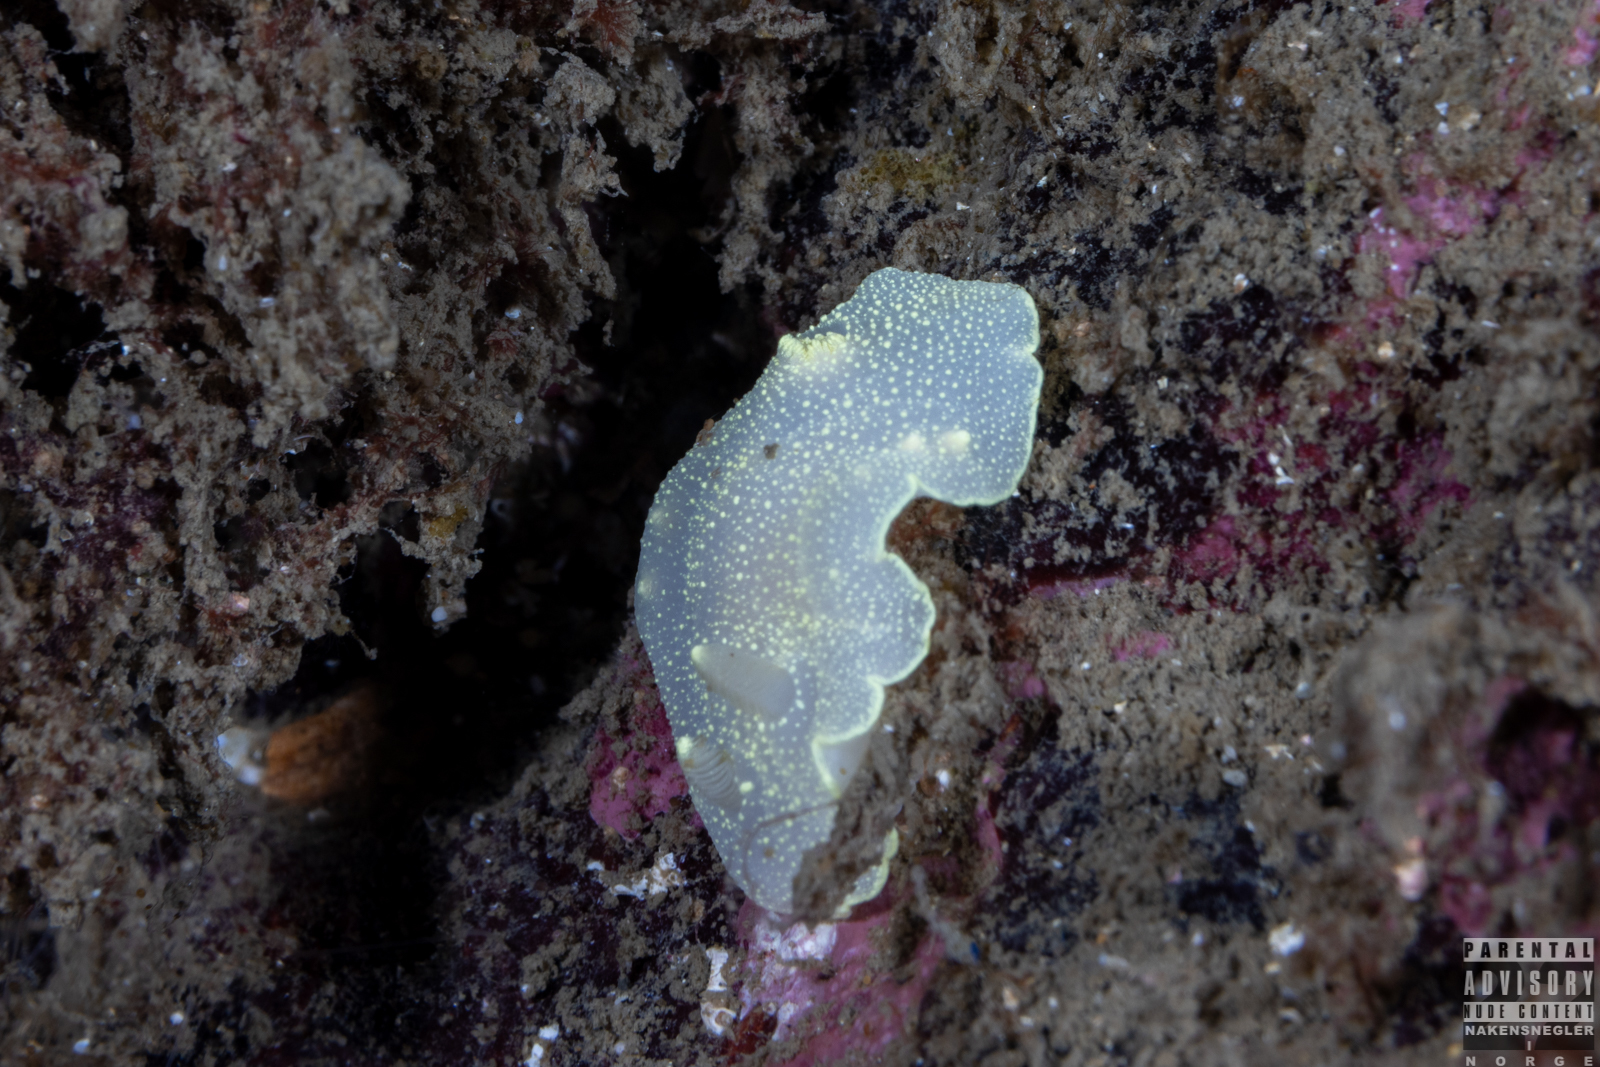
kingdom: Animalia
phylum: Mollusca
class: Gastropoda
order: Nudibranchia
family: Cadlinidae
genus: Cadlina
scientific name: Cadlina laevis
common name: White atlantic cadlina
